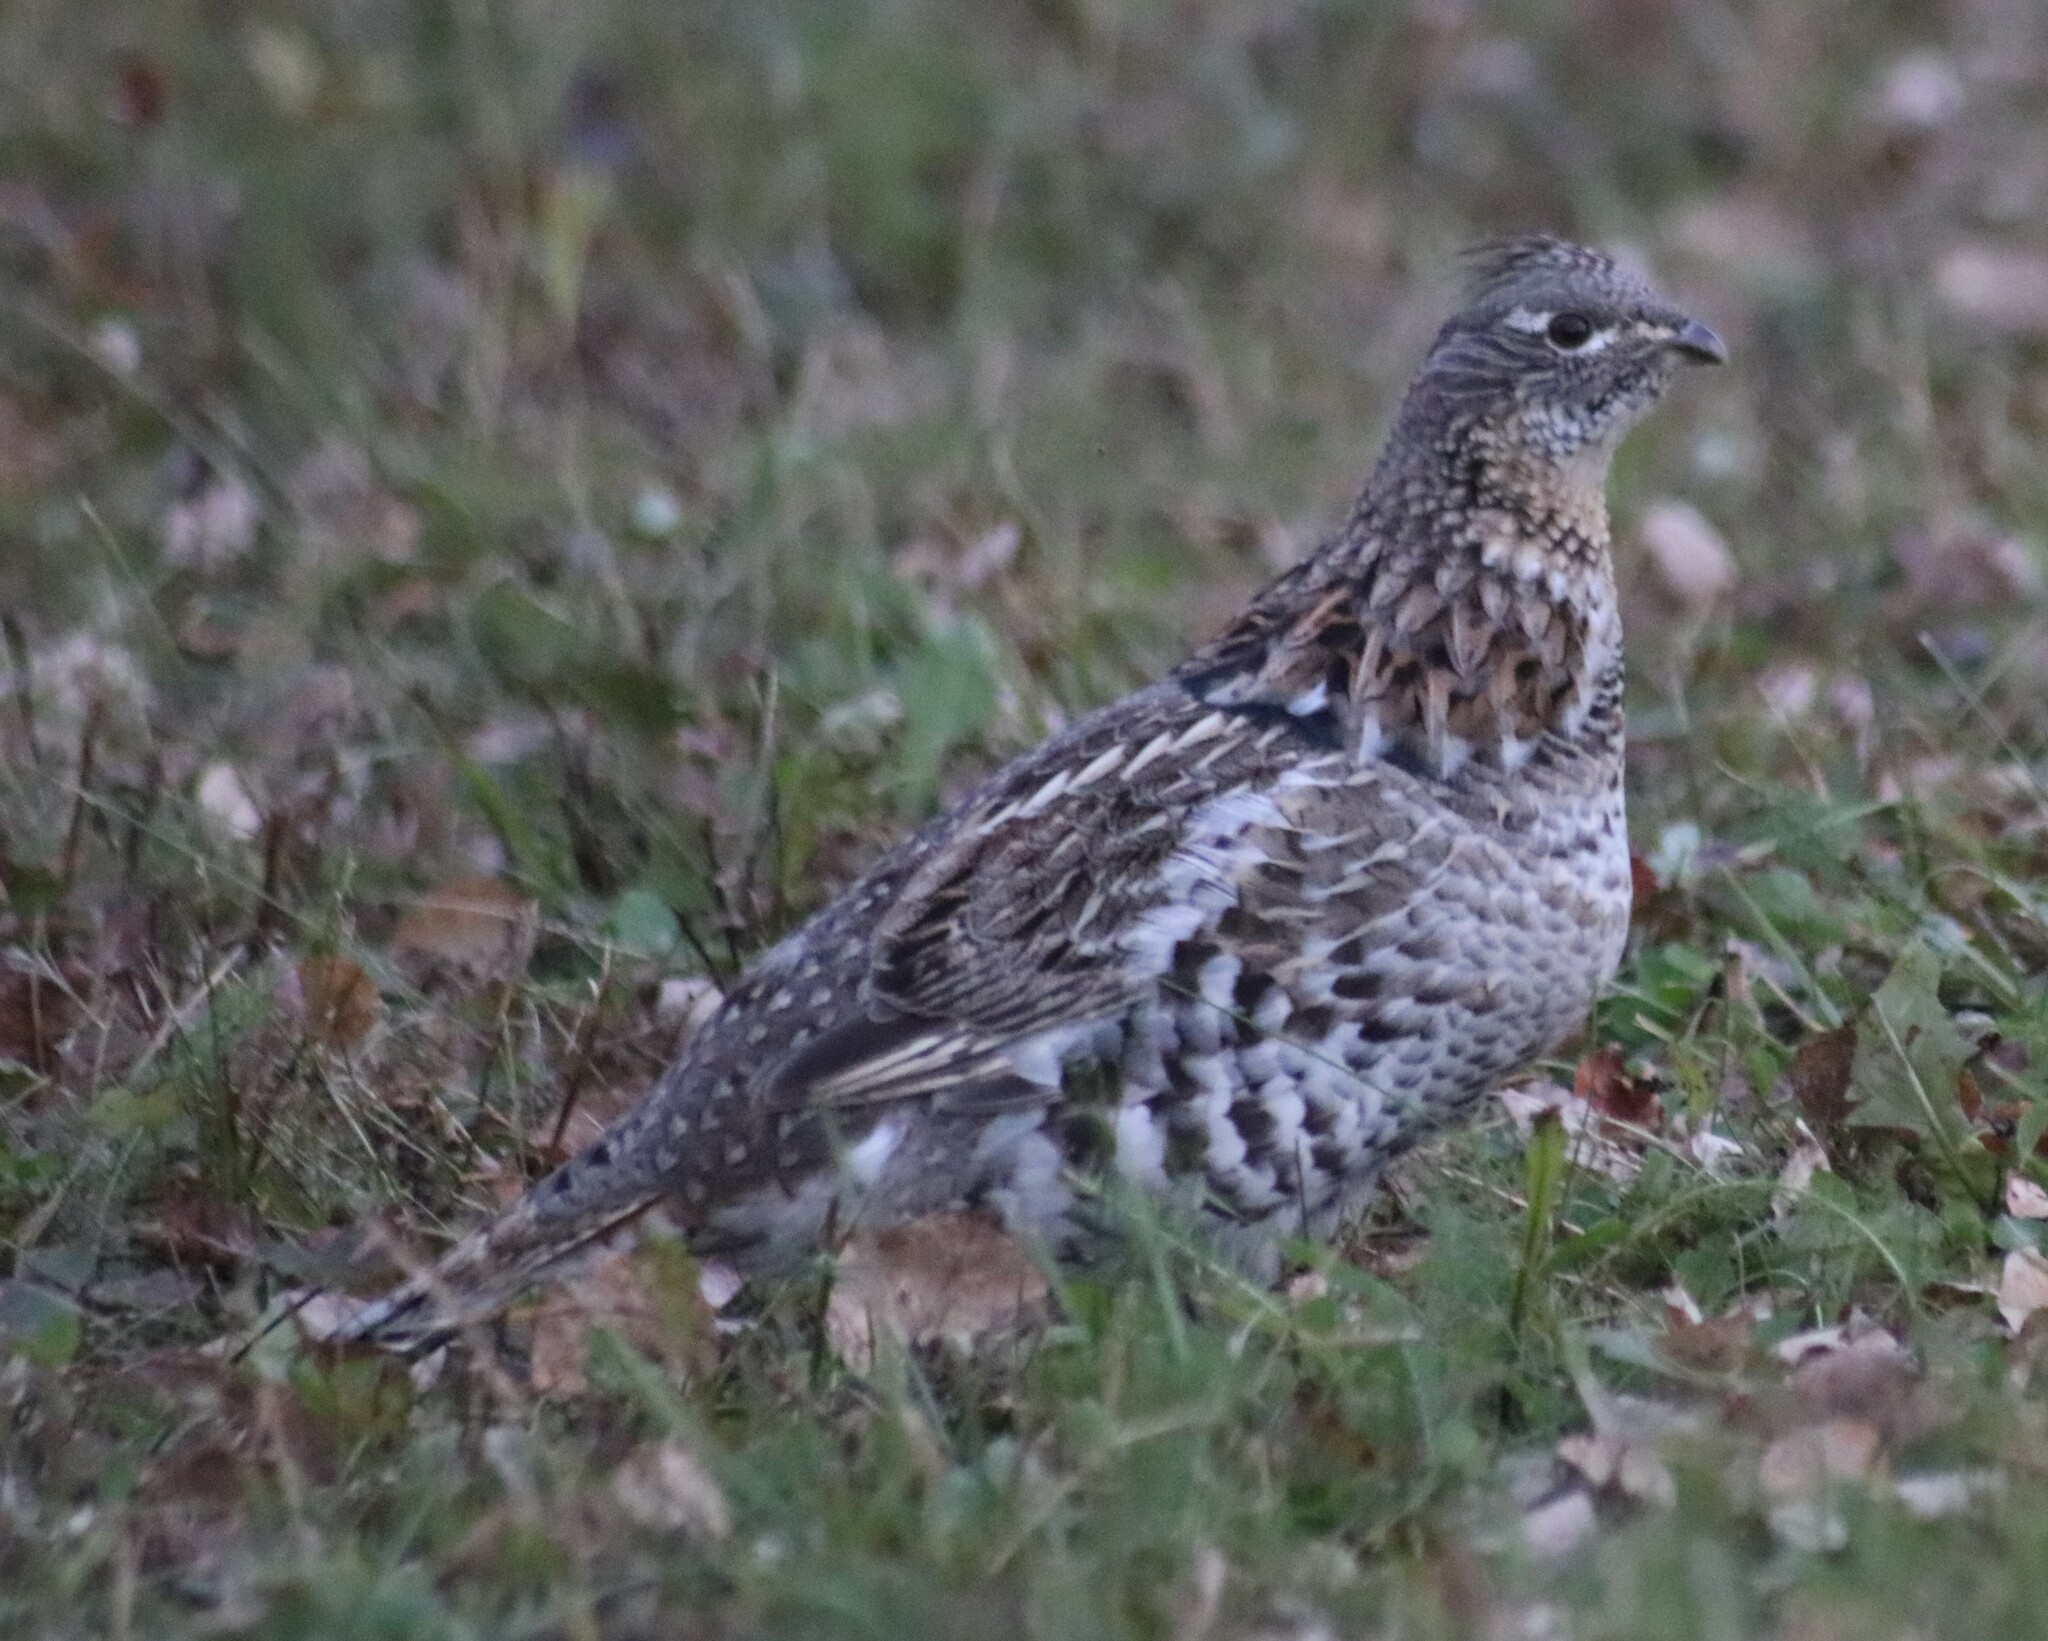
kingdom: Animalia
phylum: Chordata
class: Aves
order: Galliformes
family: Phasianidae
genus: Bonasa
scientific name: Bonasa umbellus
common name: Ruffed grouse
